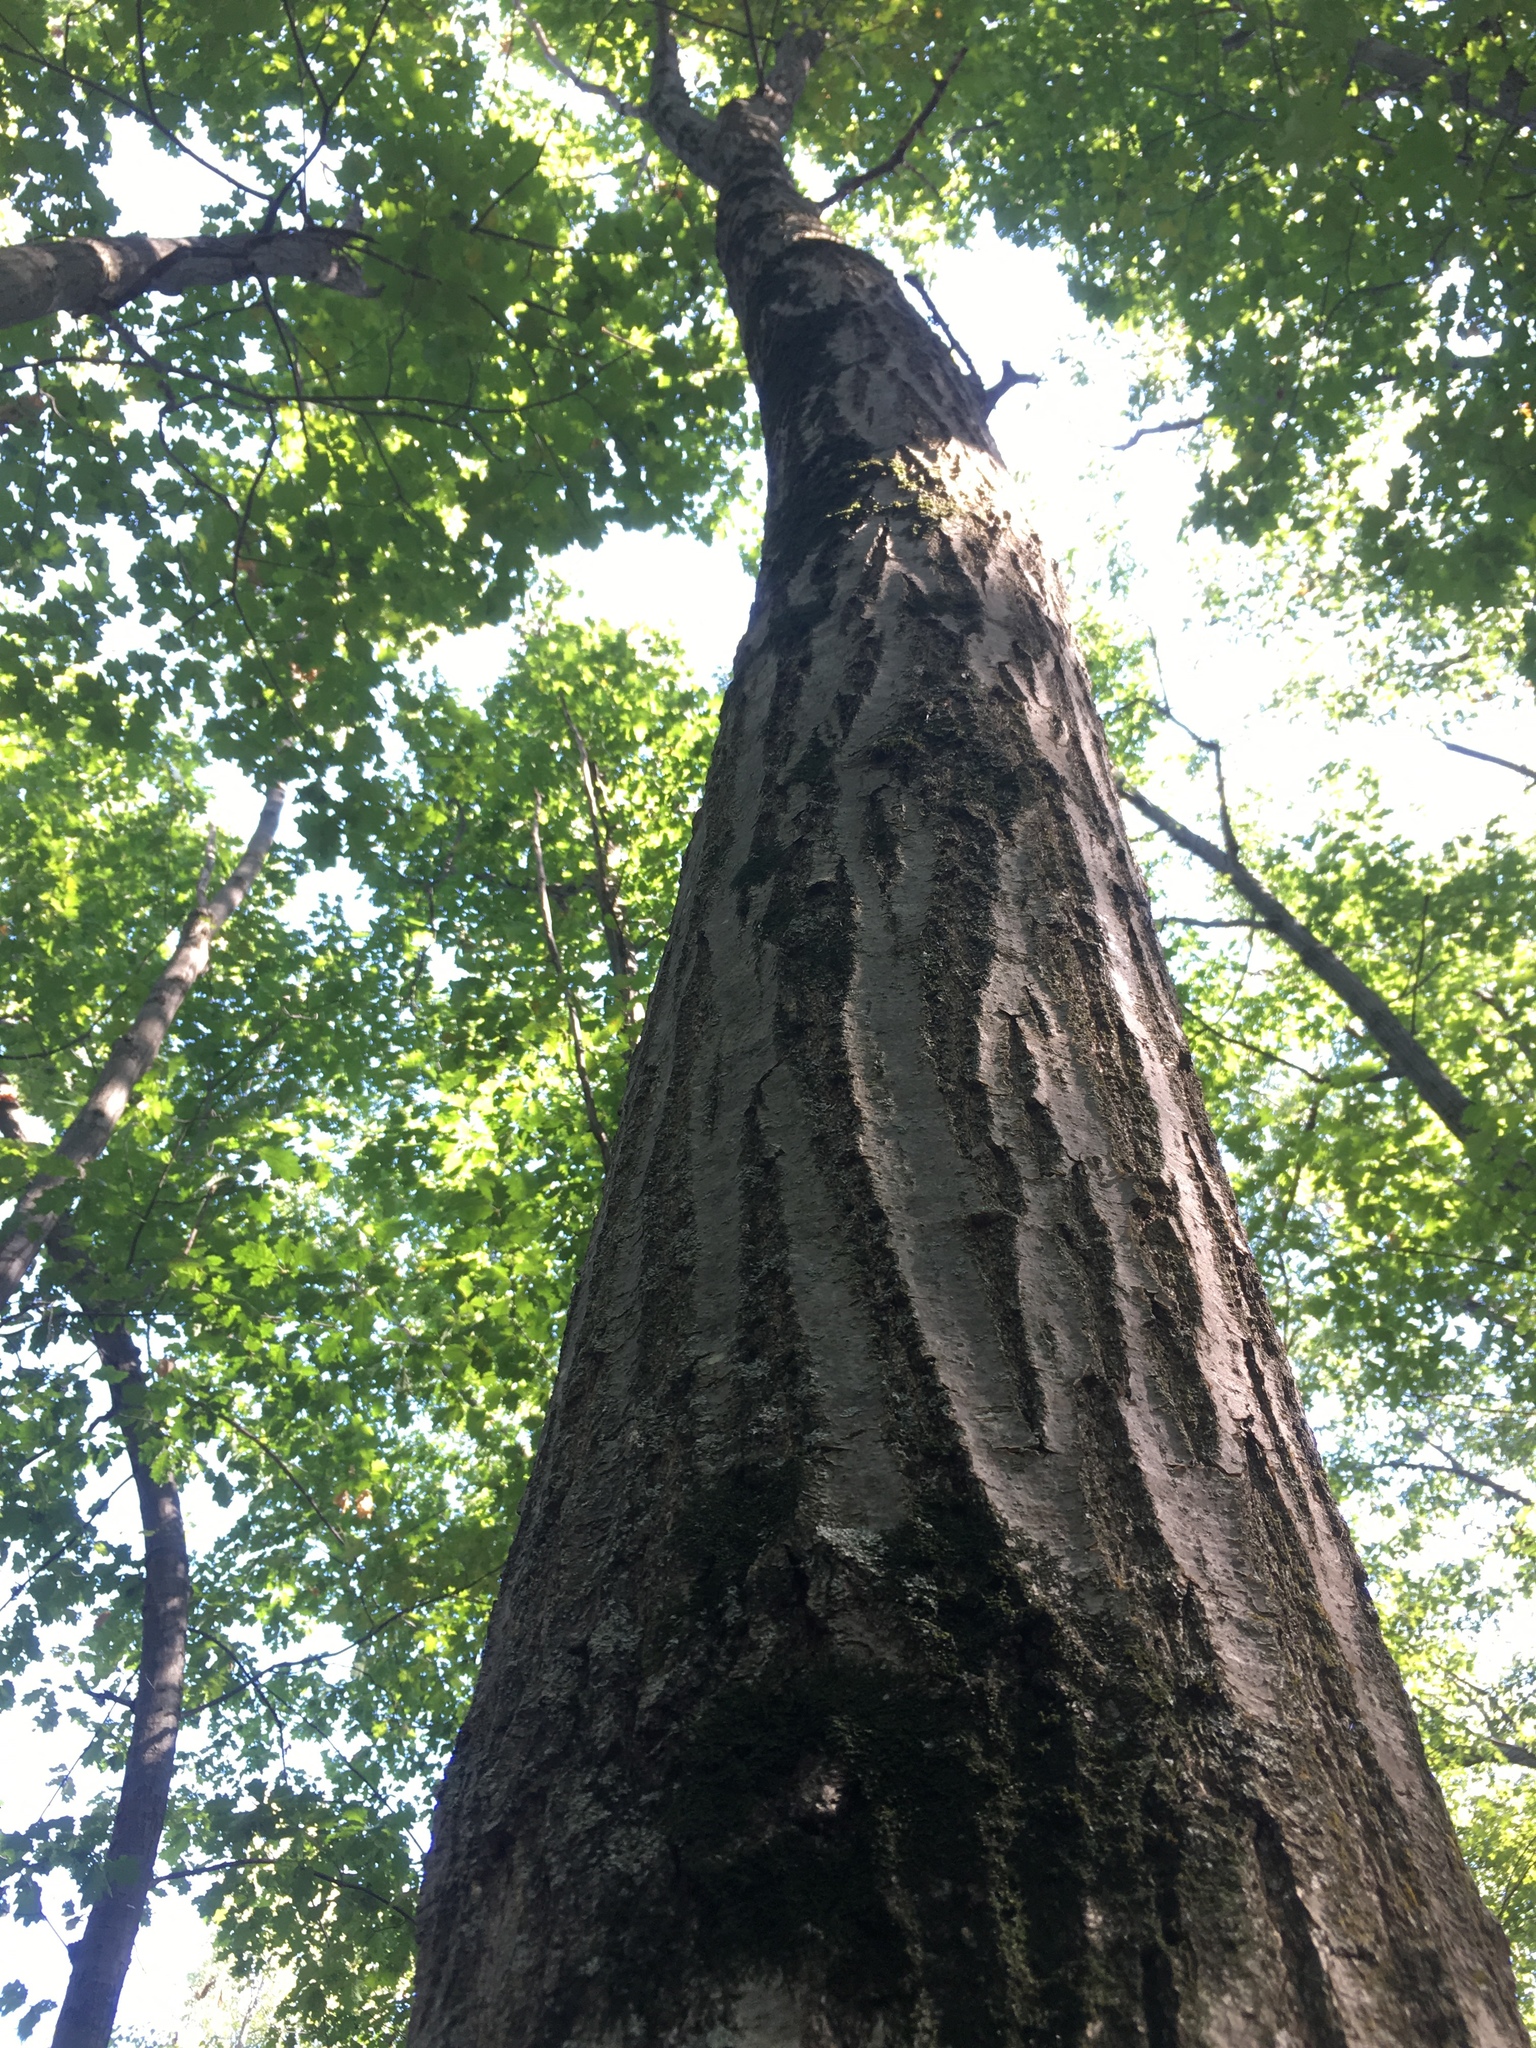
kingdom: Plantae
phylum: Tracheophyta
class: Magnoliopsida
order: Fagales
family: Fagaceae
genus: Quercus
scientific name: Quercus rubra
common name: Red oak
